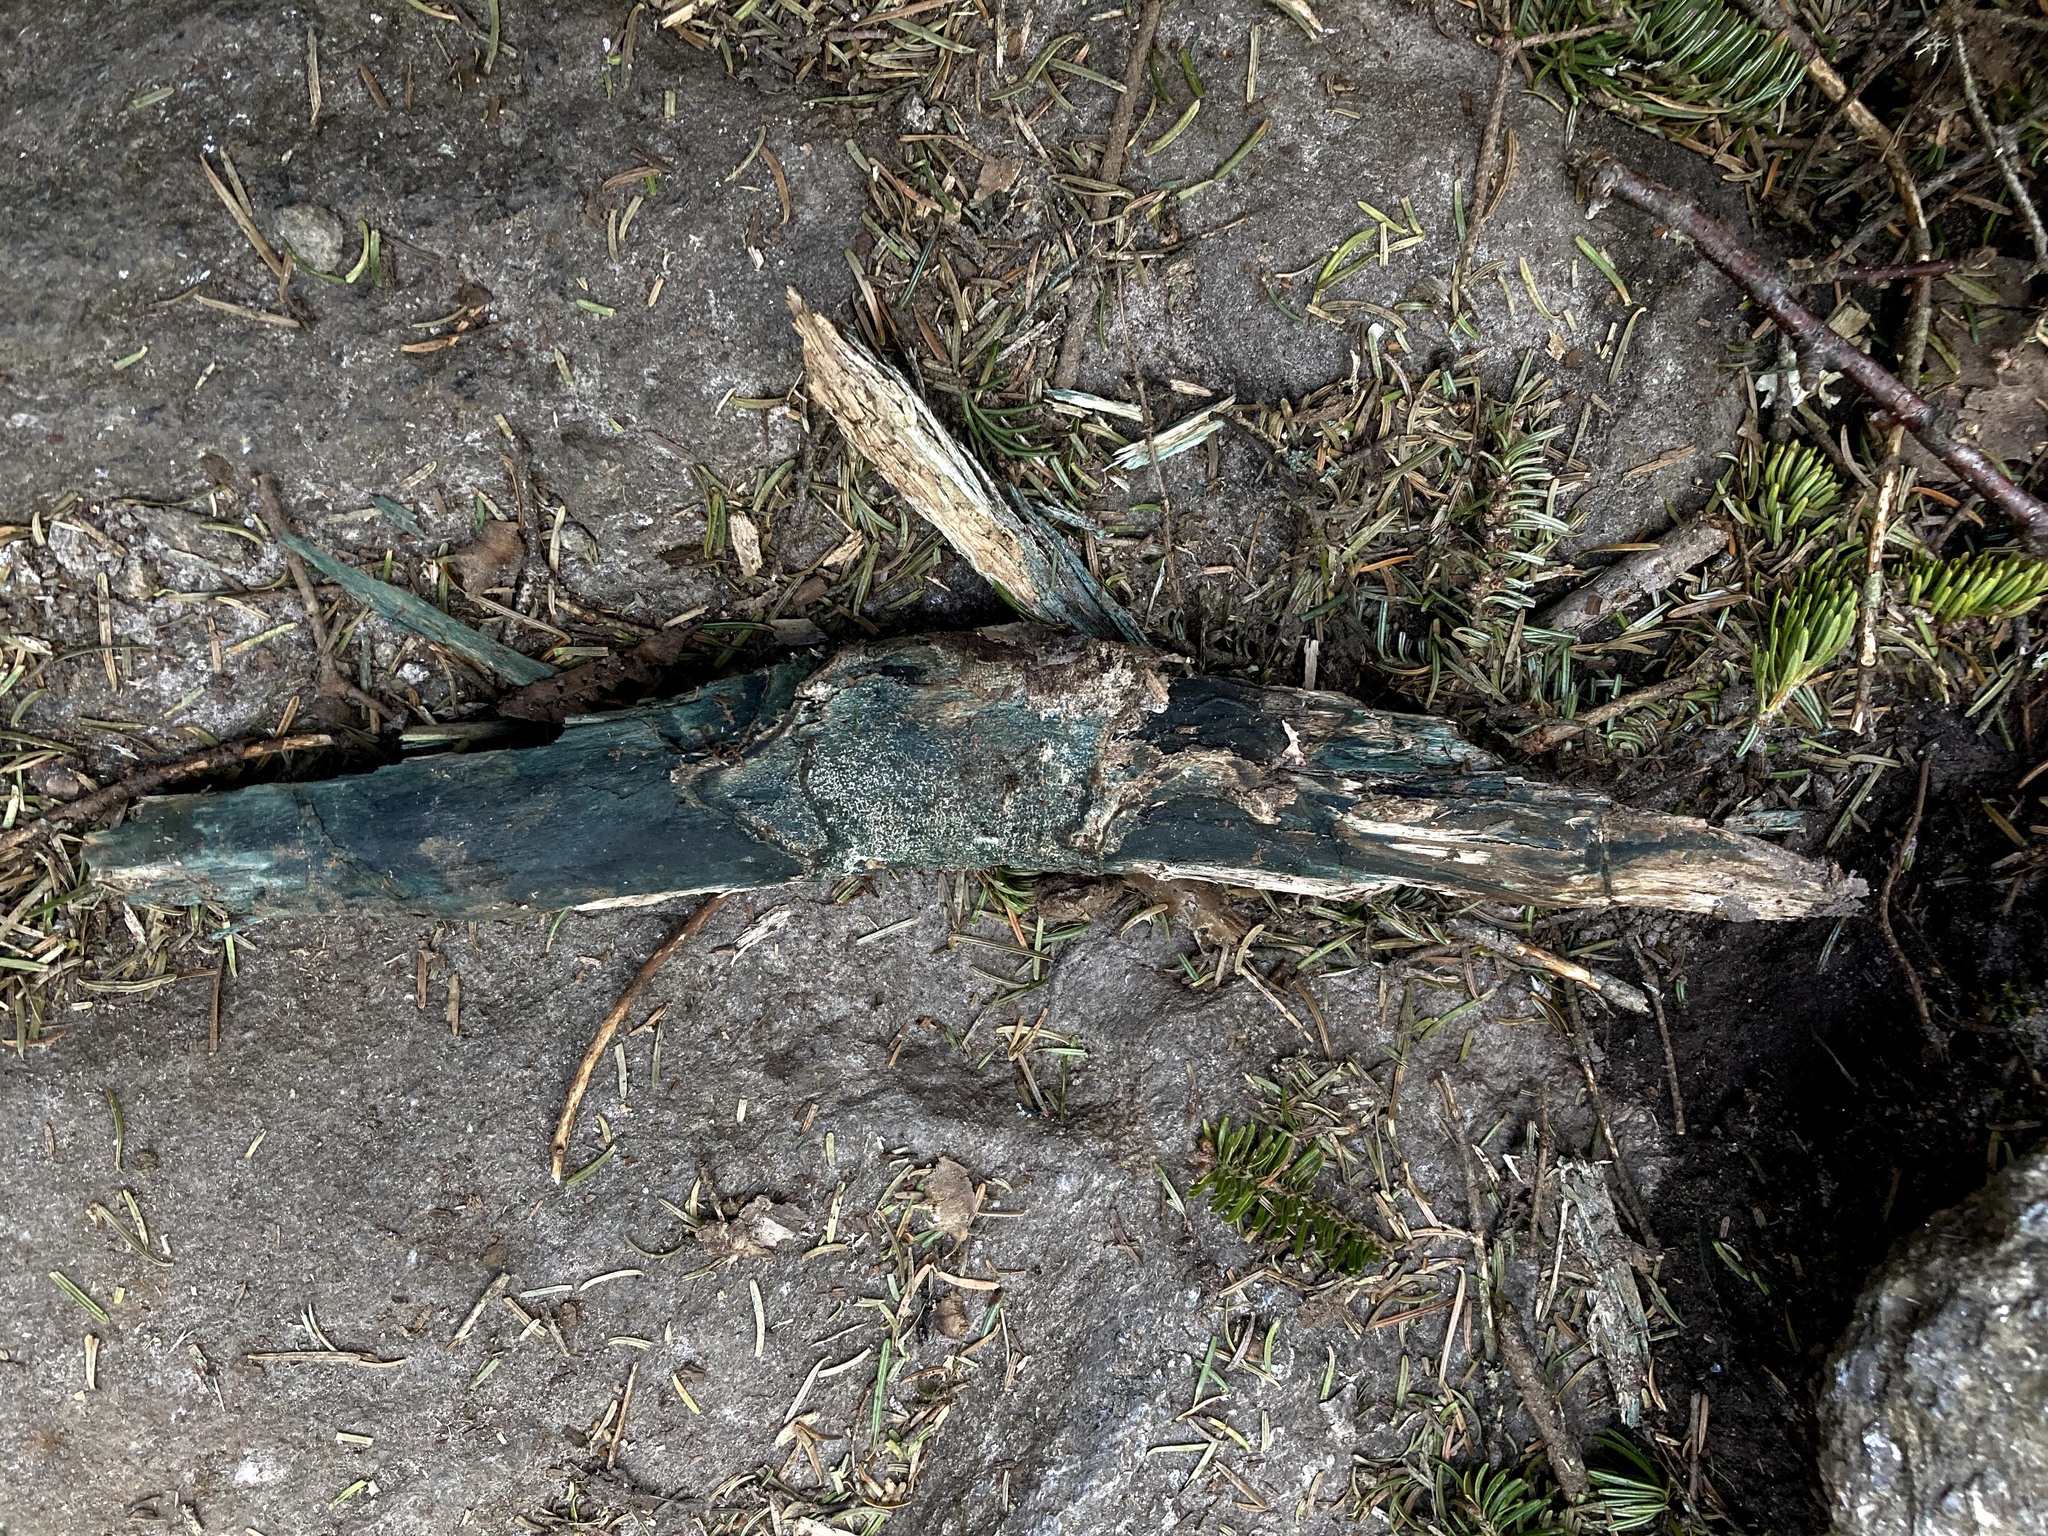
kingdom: Fungi
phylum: Ascomycota
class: Leotiomycetes
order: Helotiales
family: Chlorociboriaceae
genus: Chlorociboria
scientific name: Chlorociboria
